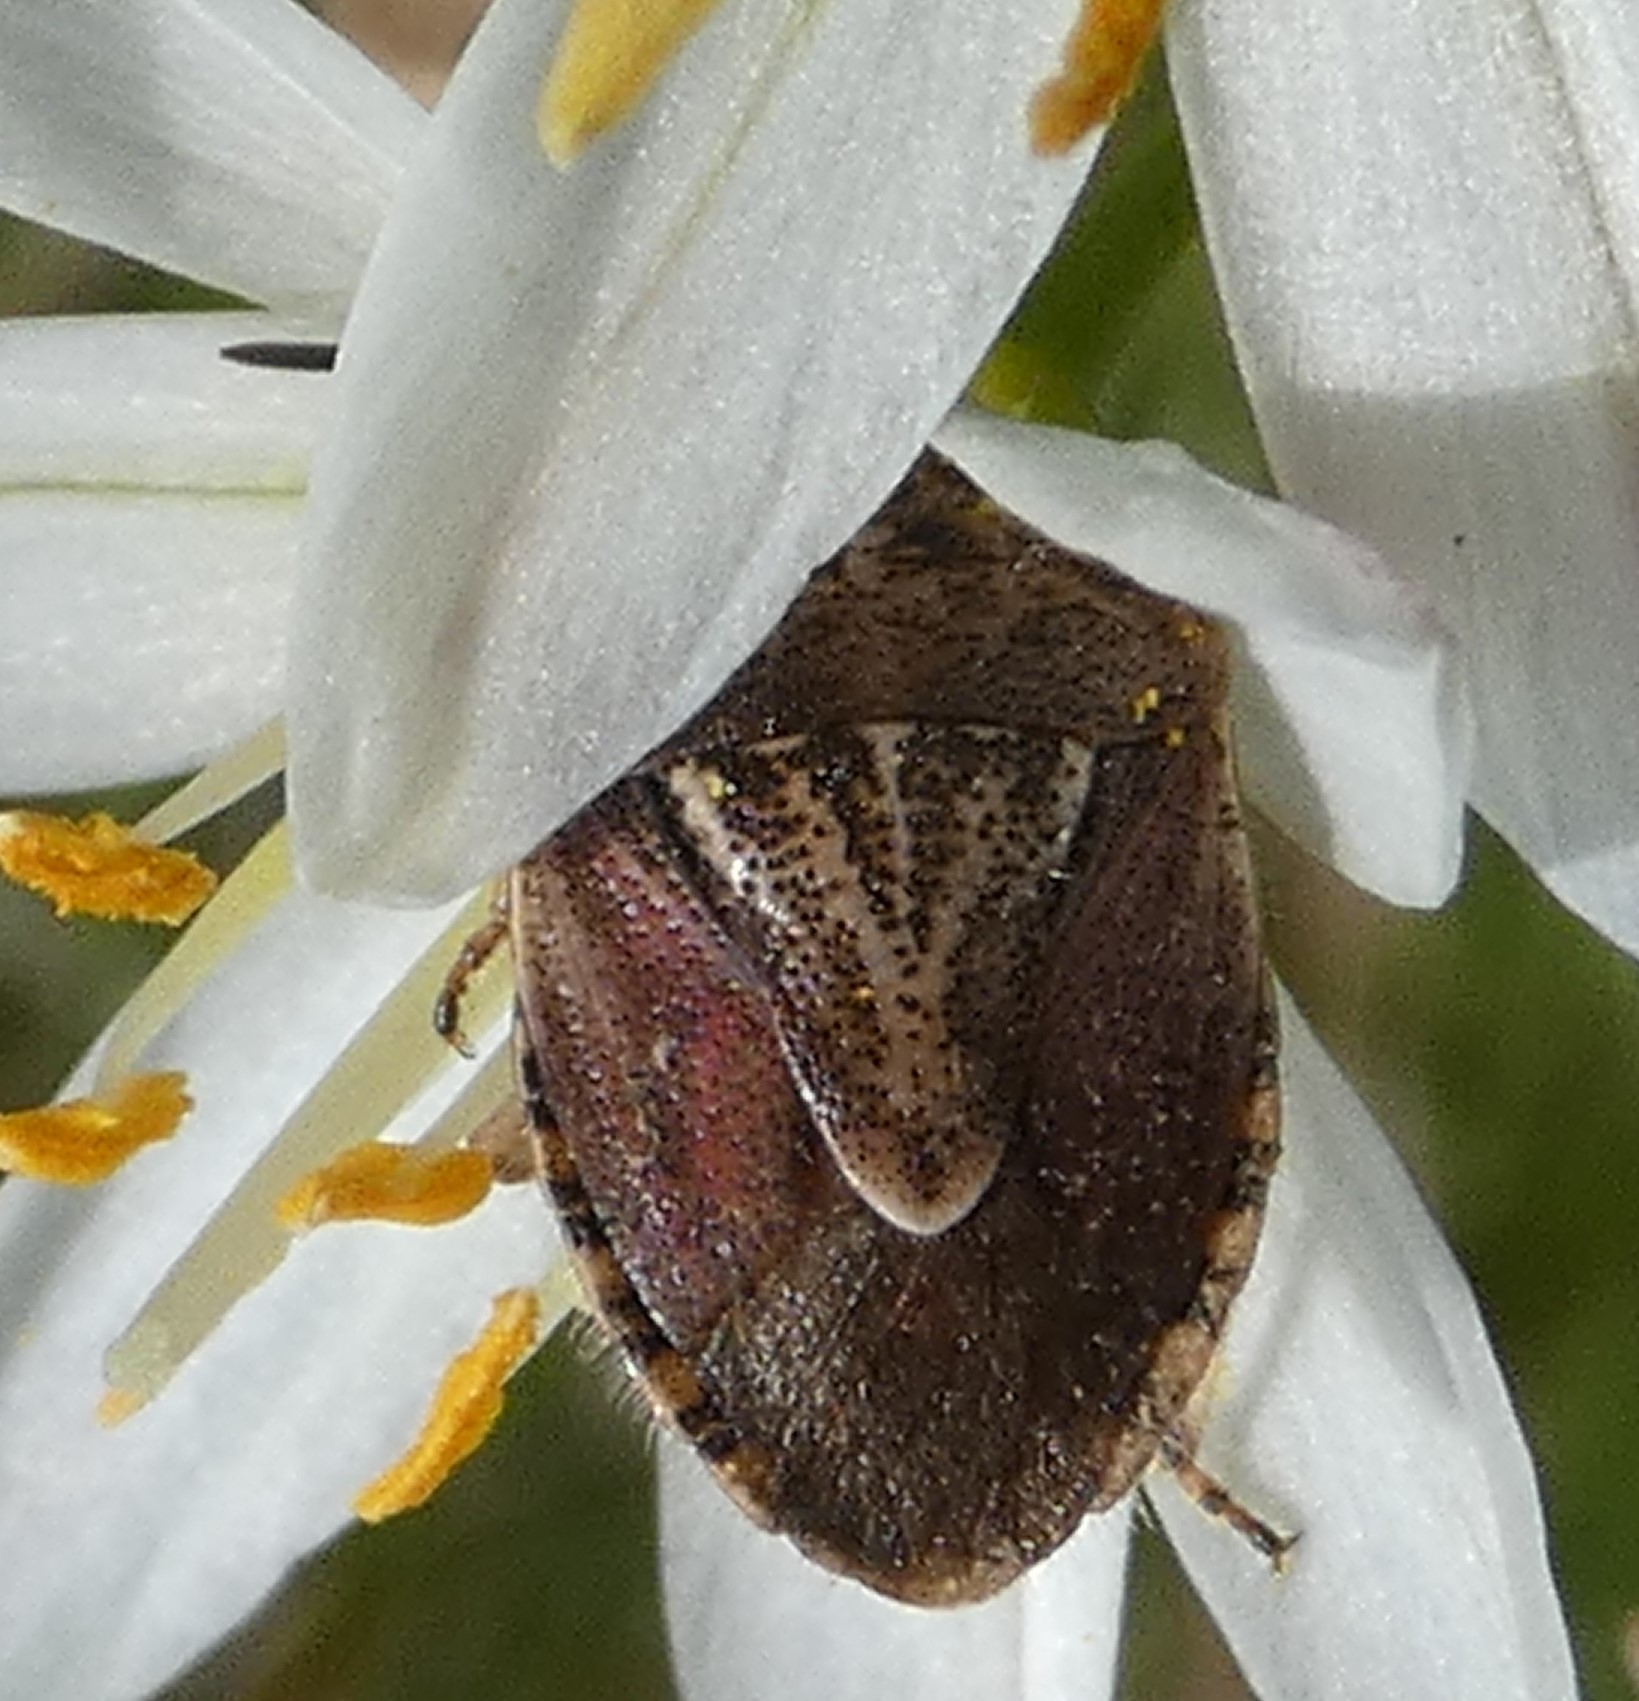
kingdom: Animalia
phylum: Arthropoda
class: Insecta
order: Hemiptera
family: Pentatomidae
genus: Trichopepla
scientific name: Trichopepla semivittata
